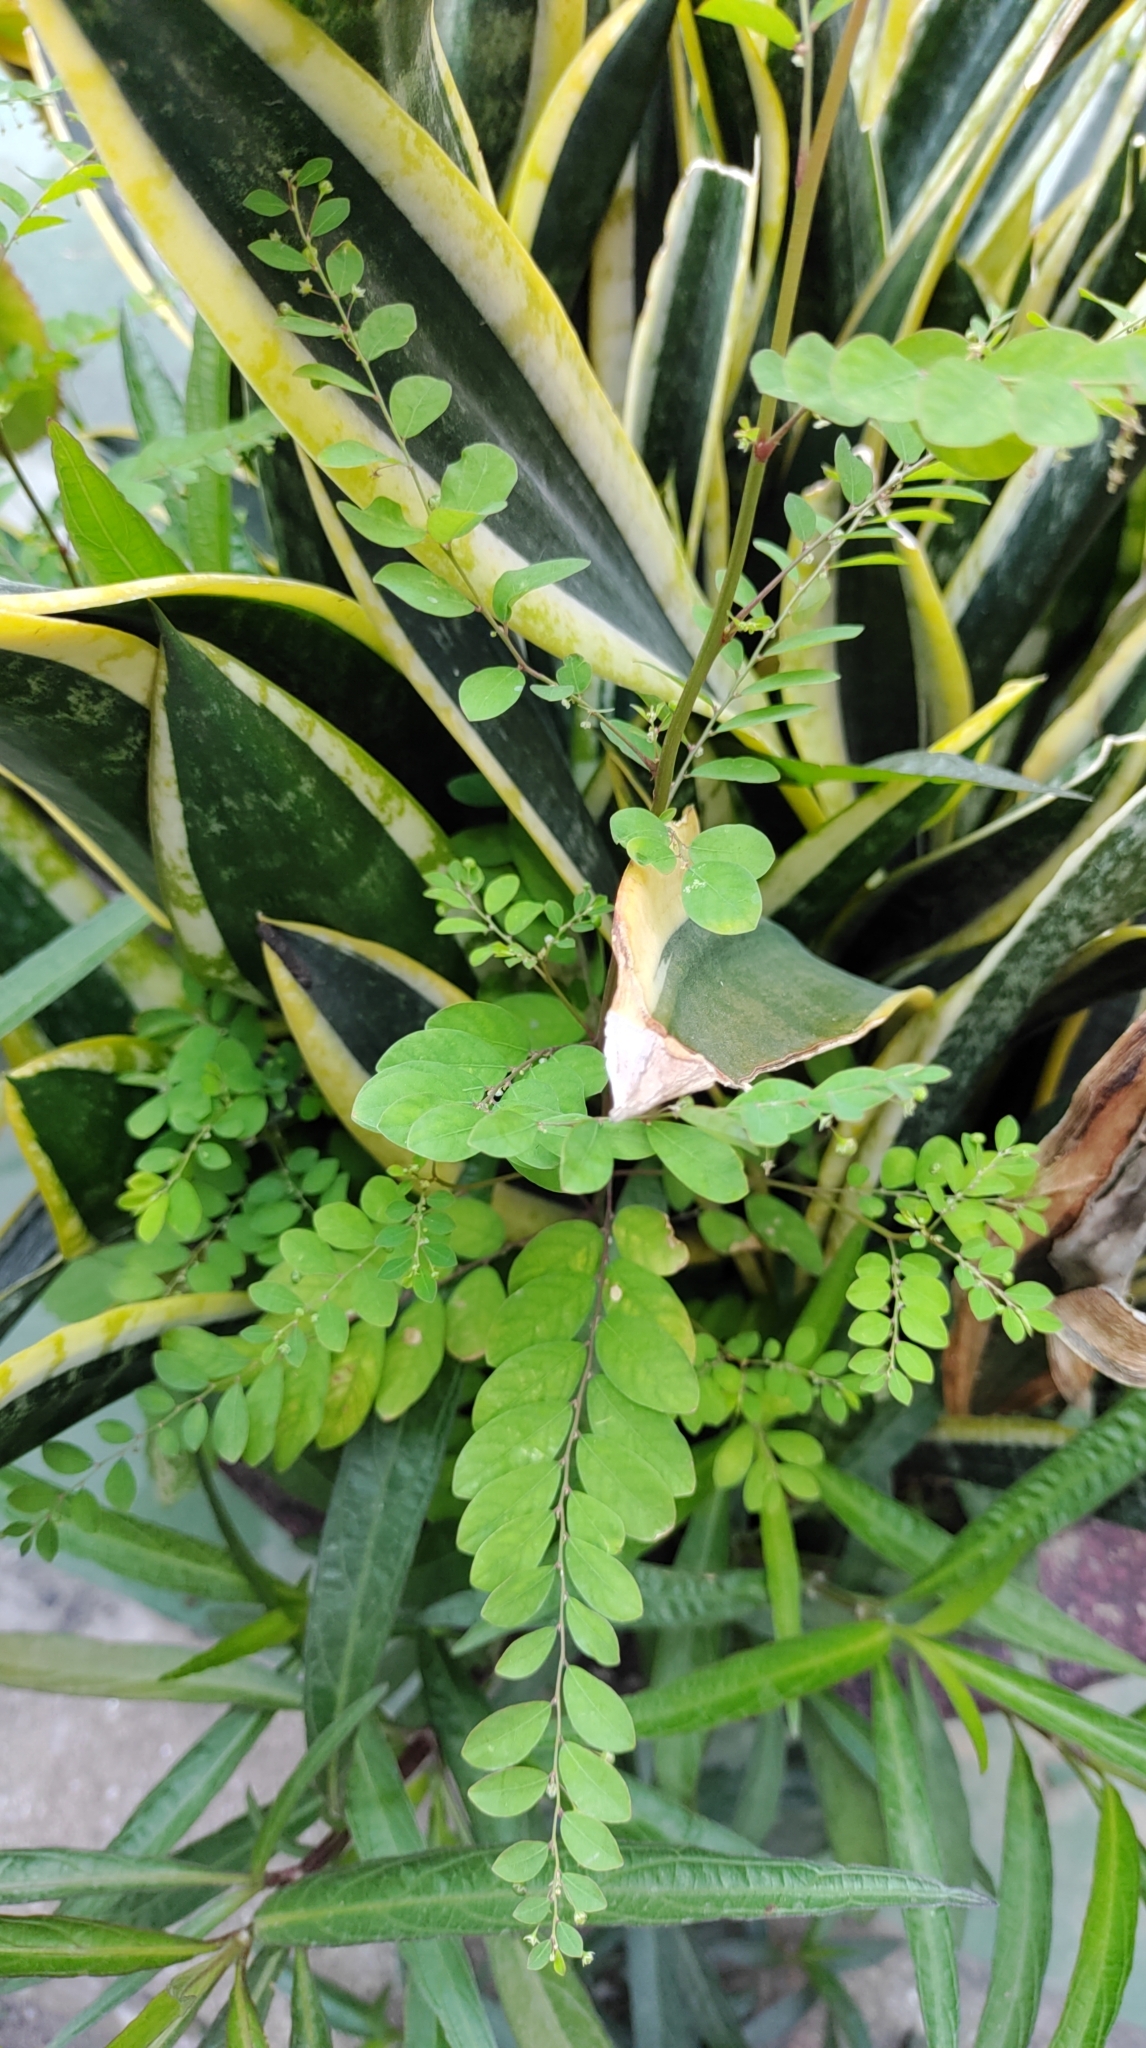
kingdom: Plantae
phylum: Tracheophyta
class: Magnoliopsida
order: Malpighiales
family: Phyllanthaceae
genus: Phyllanthus
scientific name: Phyllanthus tenellus
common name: Mascarene island leaf-flower
